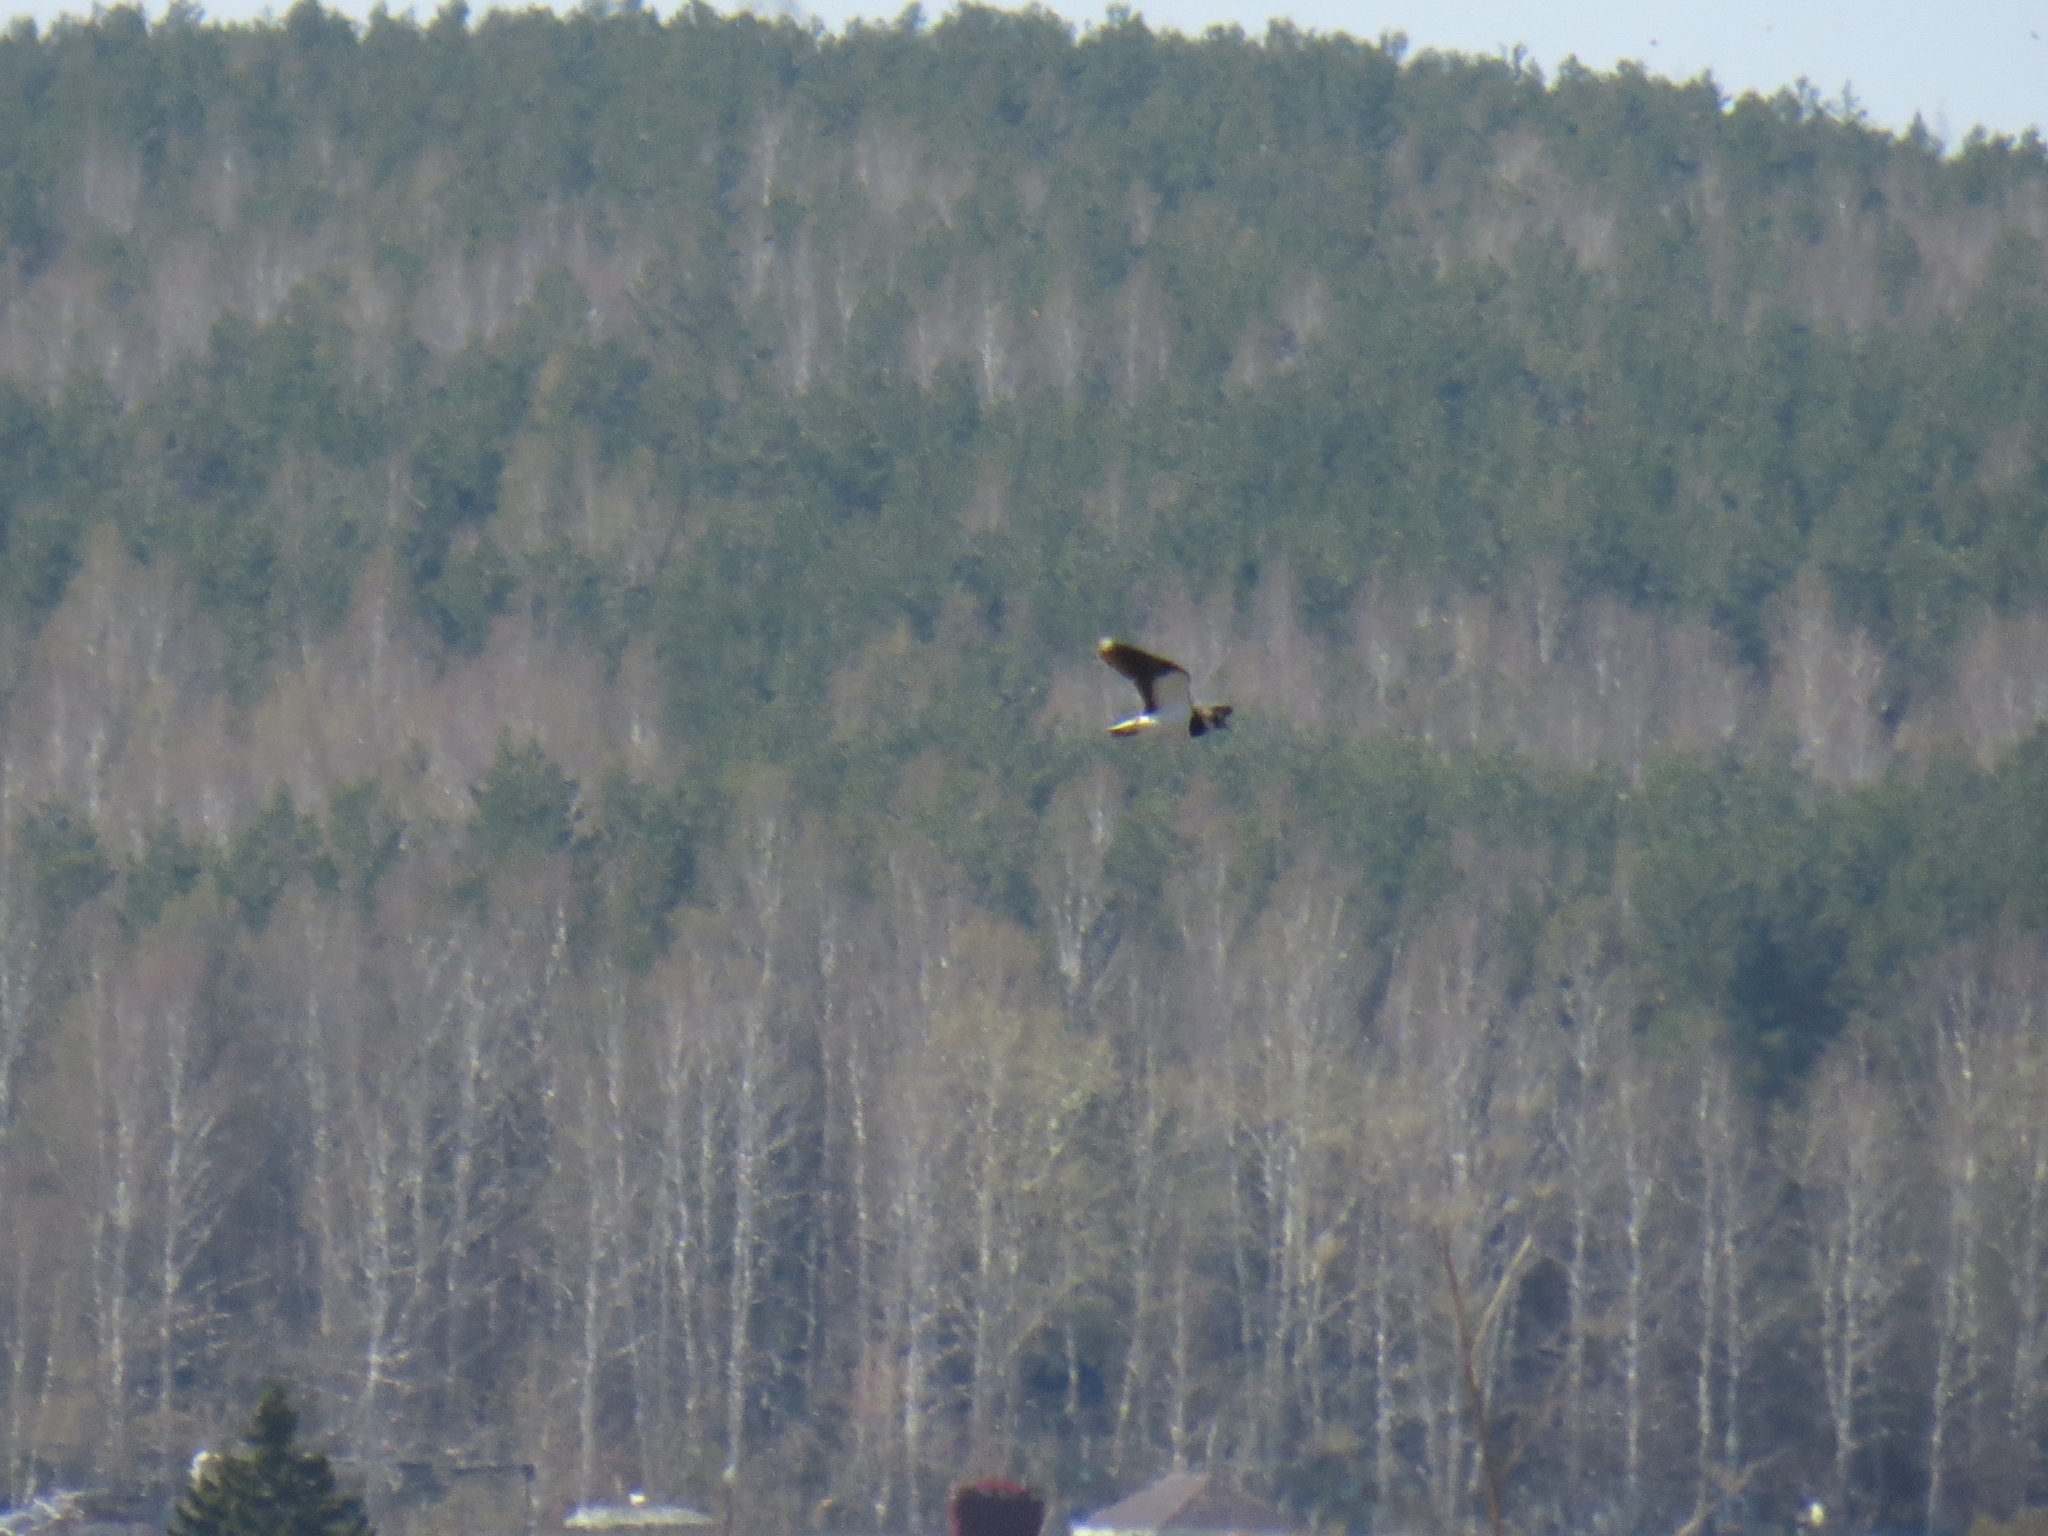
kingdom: Animalia
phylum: Chordata
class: Aves
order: Charadriiformes
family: Charadriidae
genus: Vanellus
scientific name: Vanellus vanellus
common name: Northern lapwing
